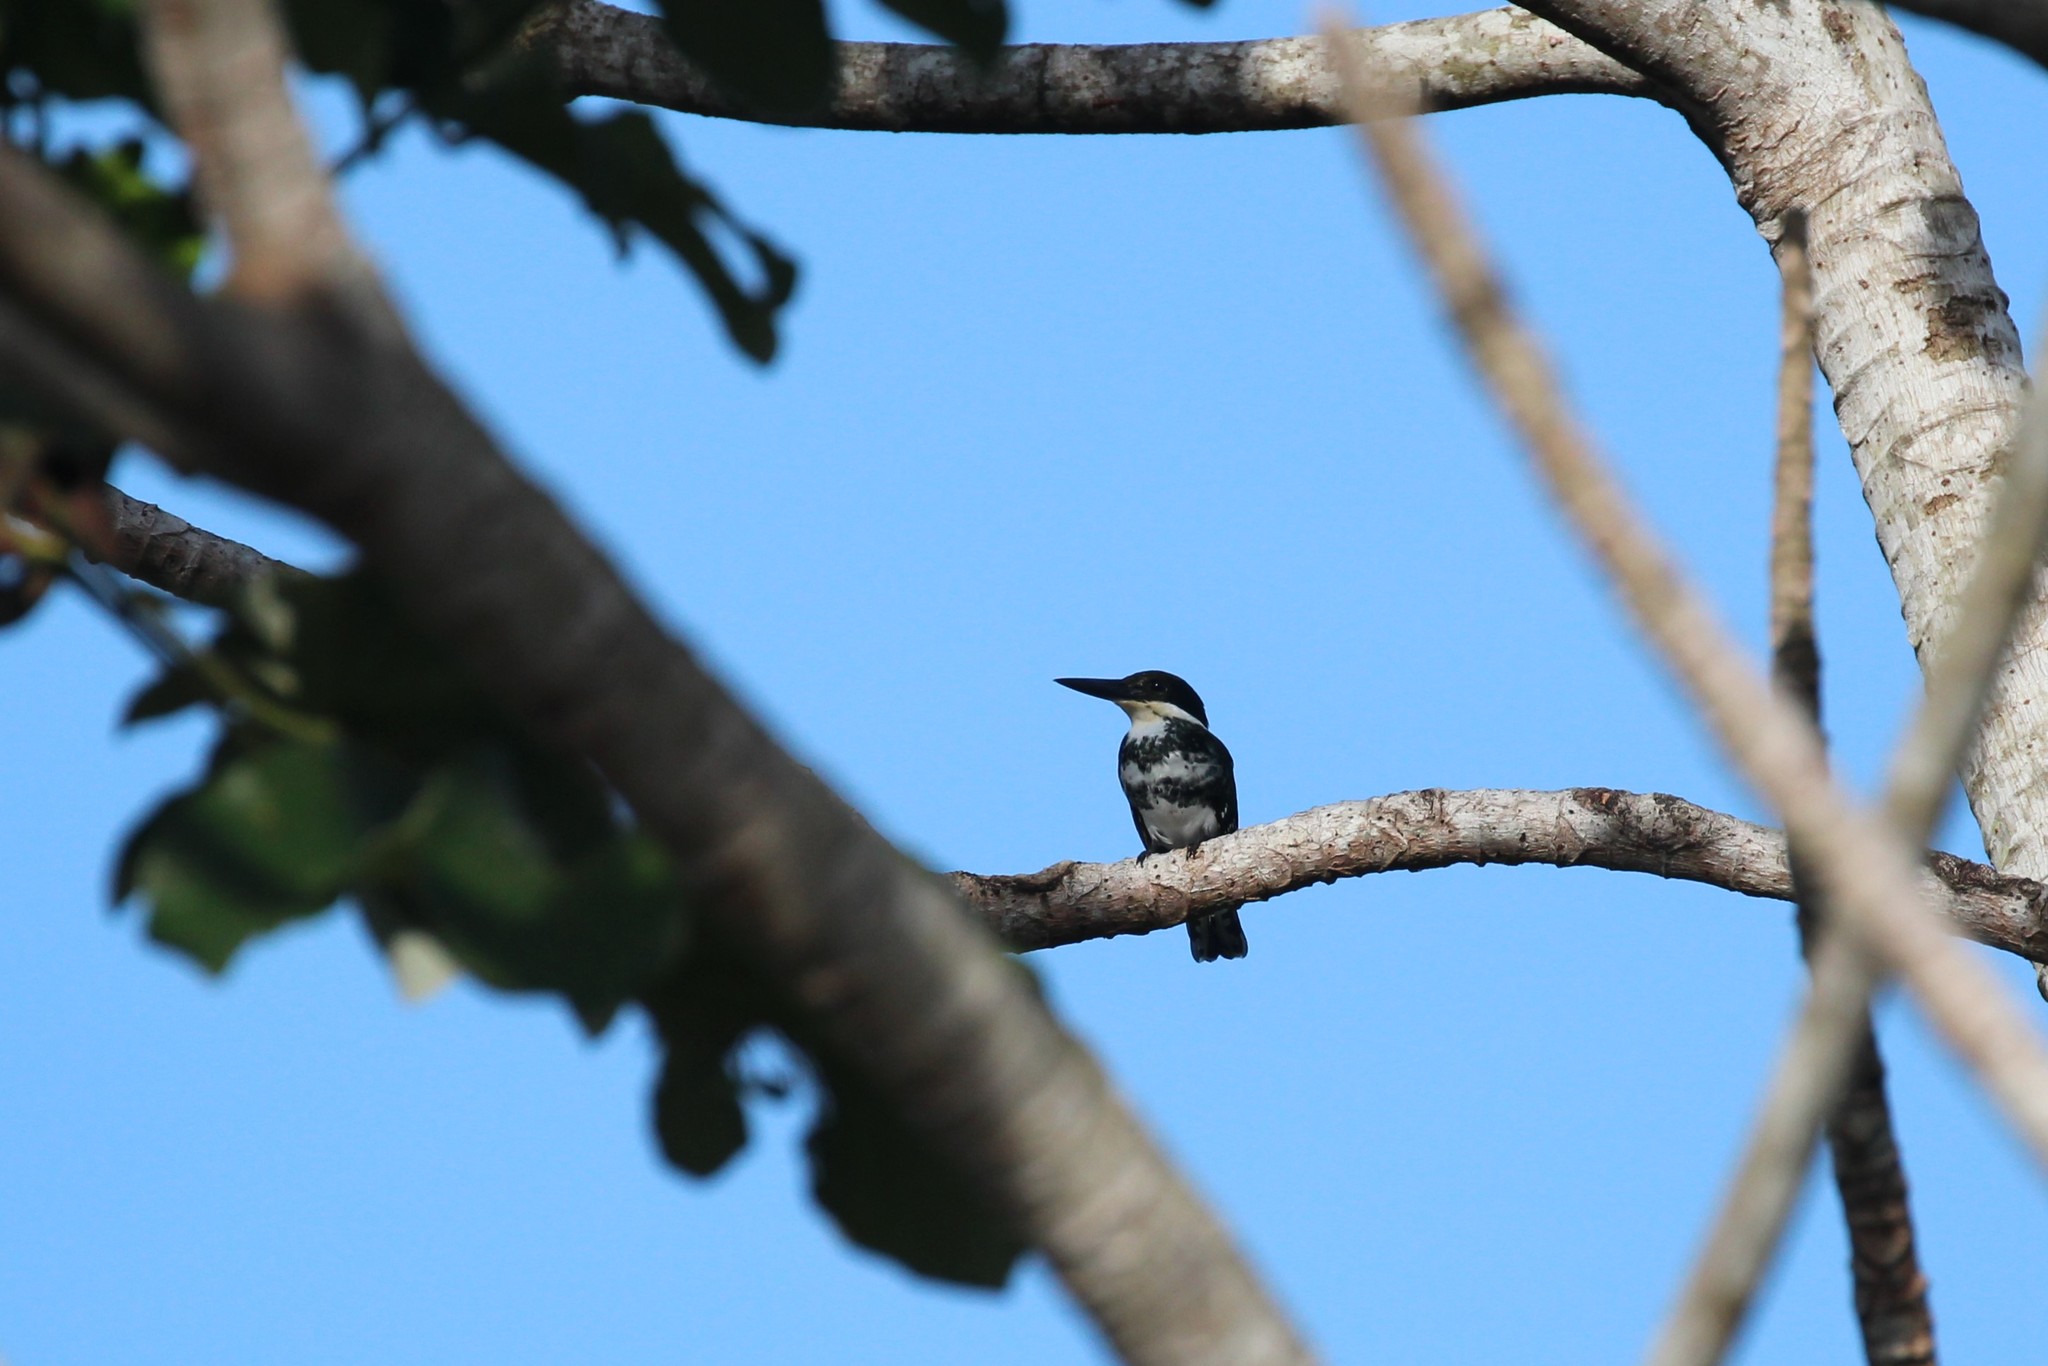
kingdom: Animalia
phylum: Chordata
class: Aves
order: Coraciiformes
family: Alcedinidae
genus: Chloroceryle
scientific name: Chloroceryle americana
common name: Green kingfisher
